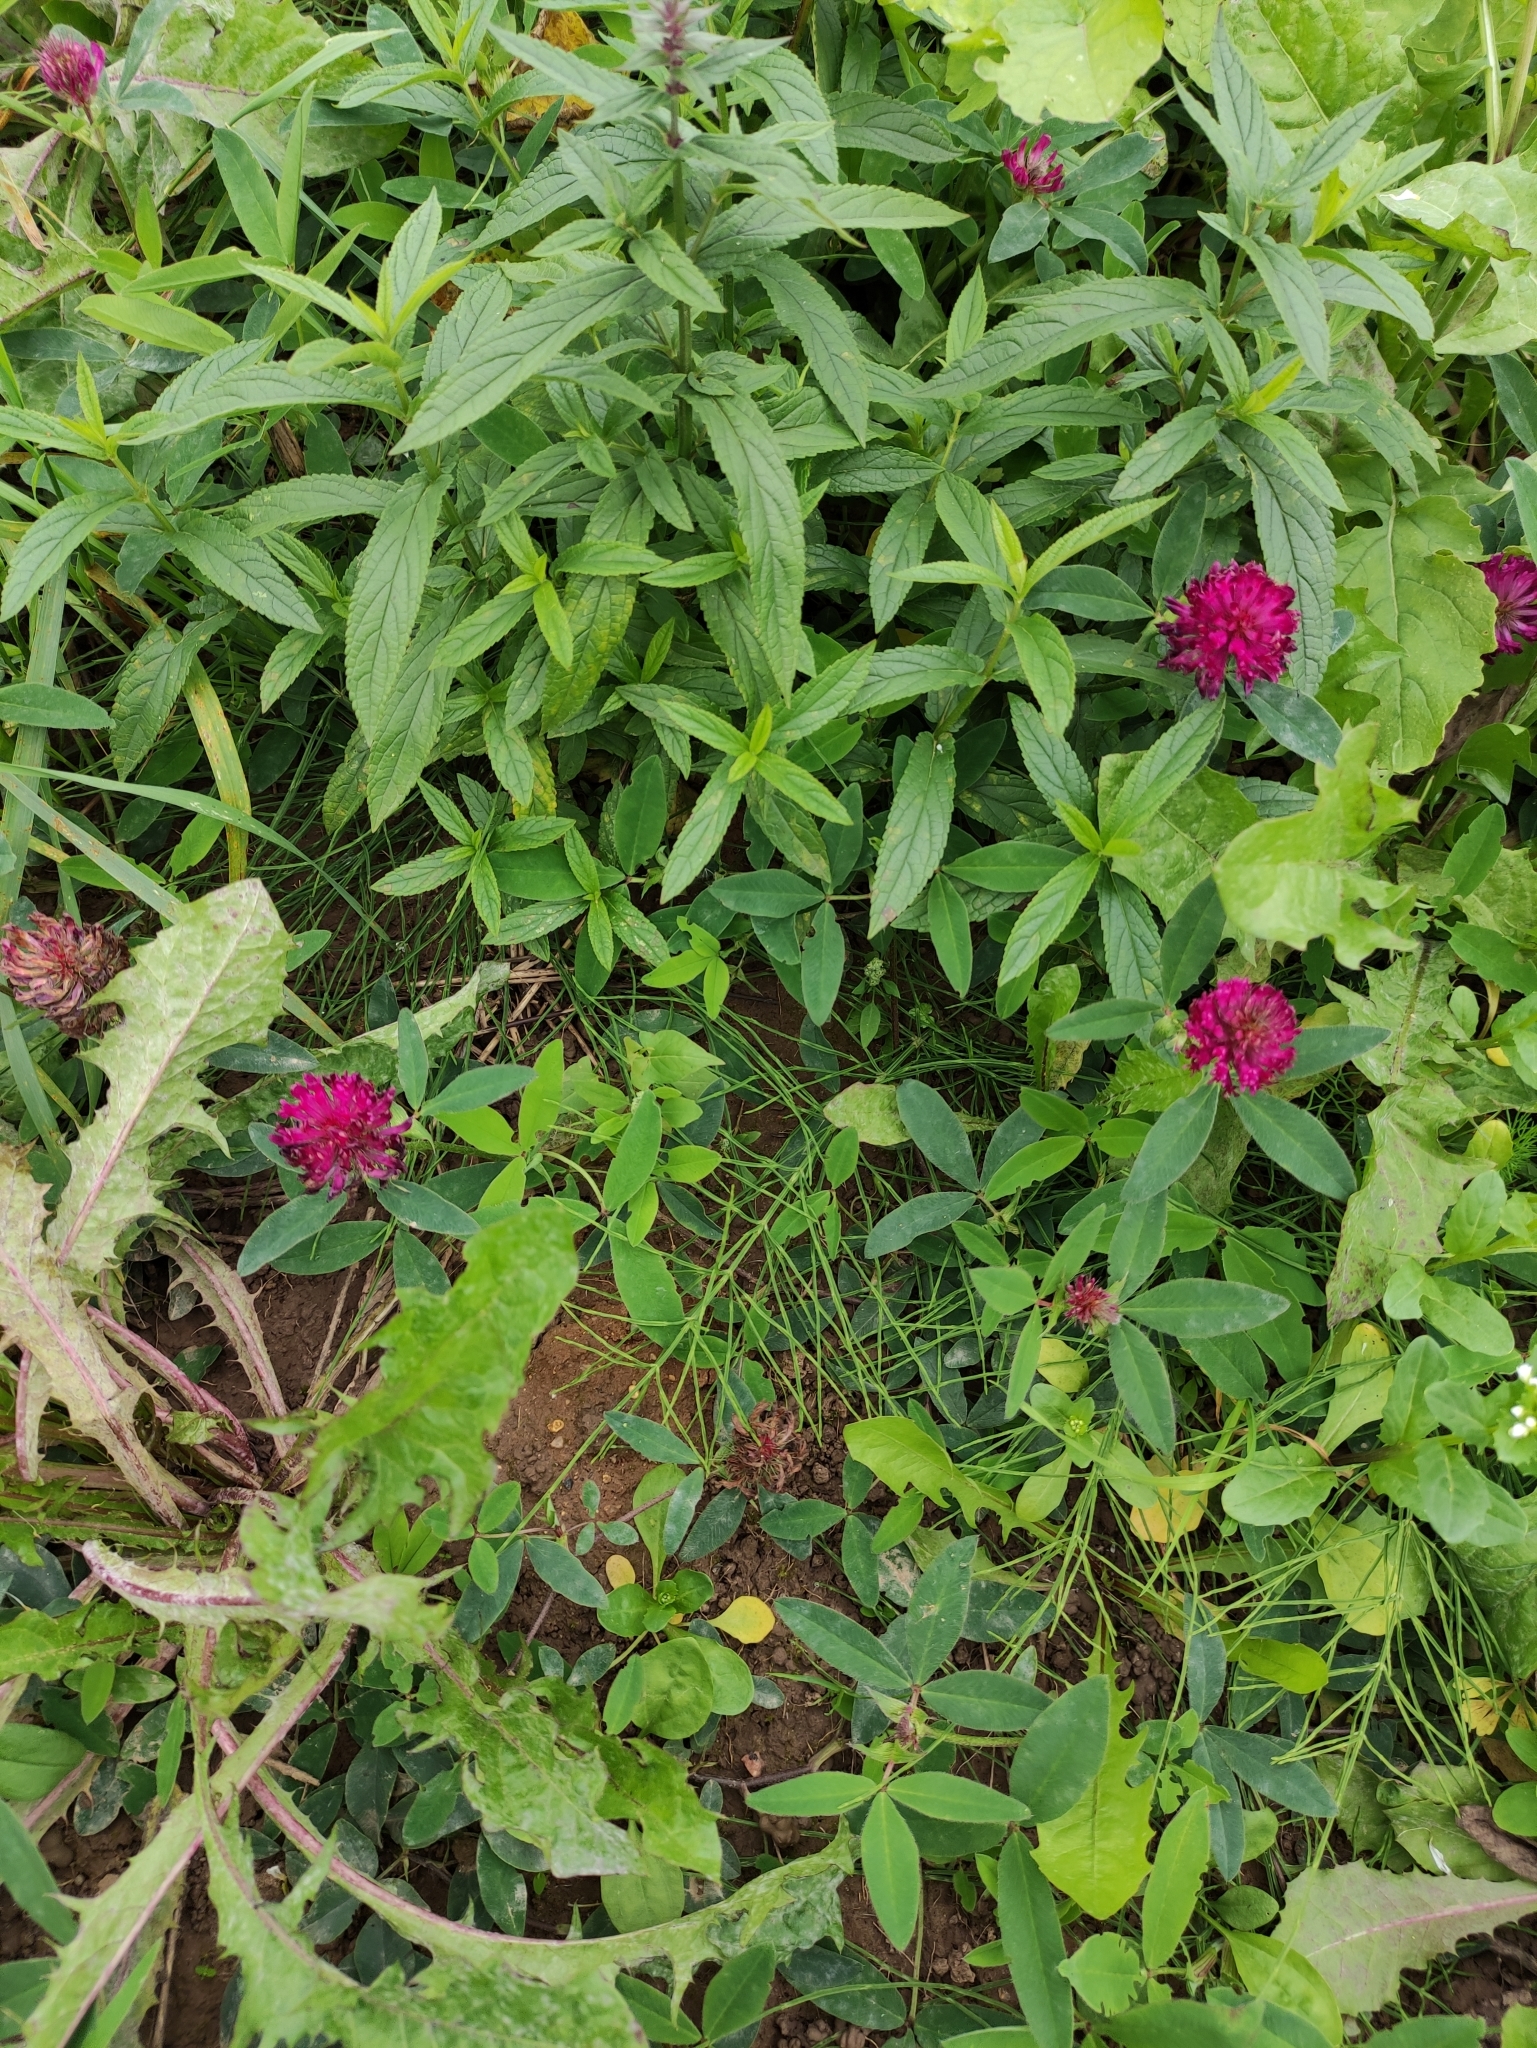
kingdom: Plantae
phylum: Tracheophyta
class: Magnoliopsida
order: Fabales
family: Fabaceae
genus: Trifolium
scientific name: Trifolium medium
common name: Zigzag clover
